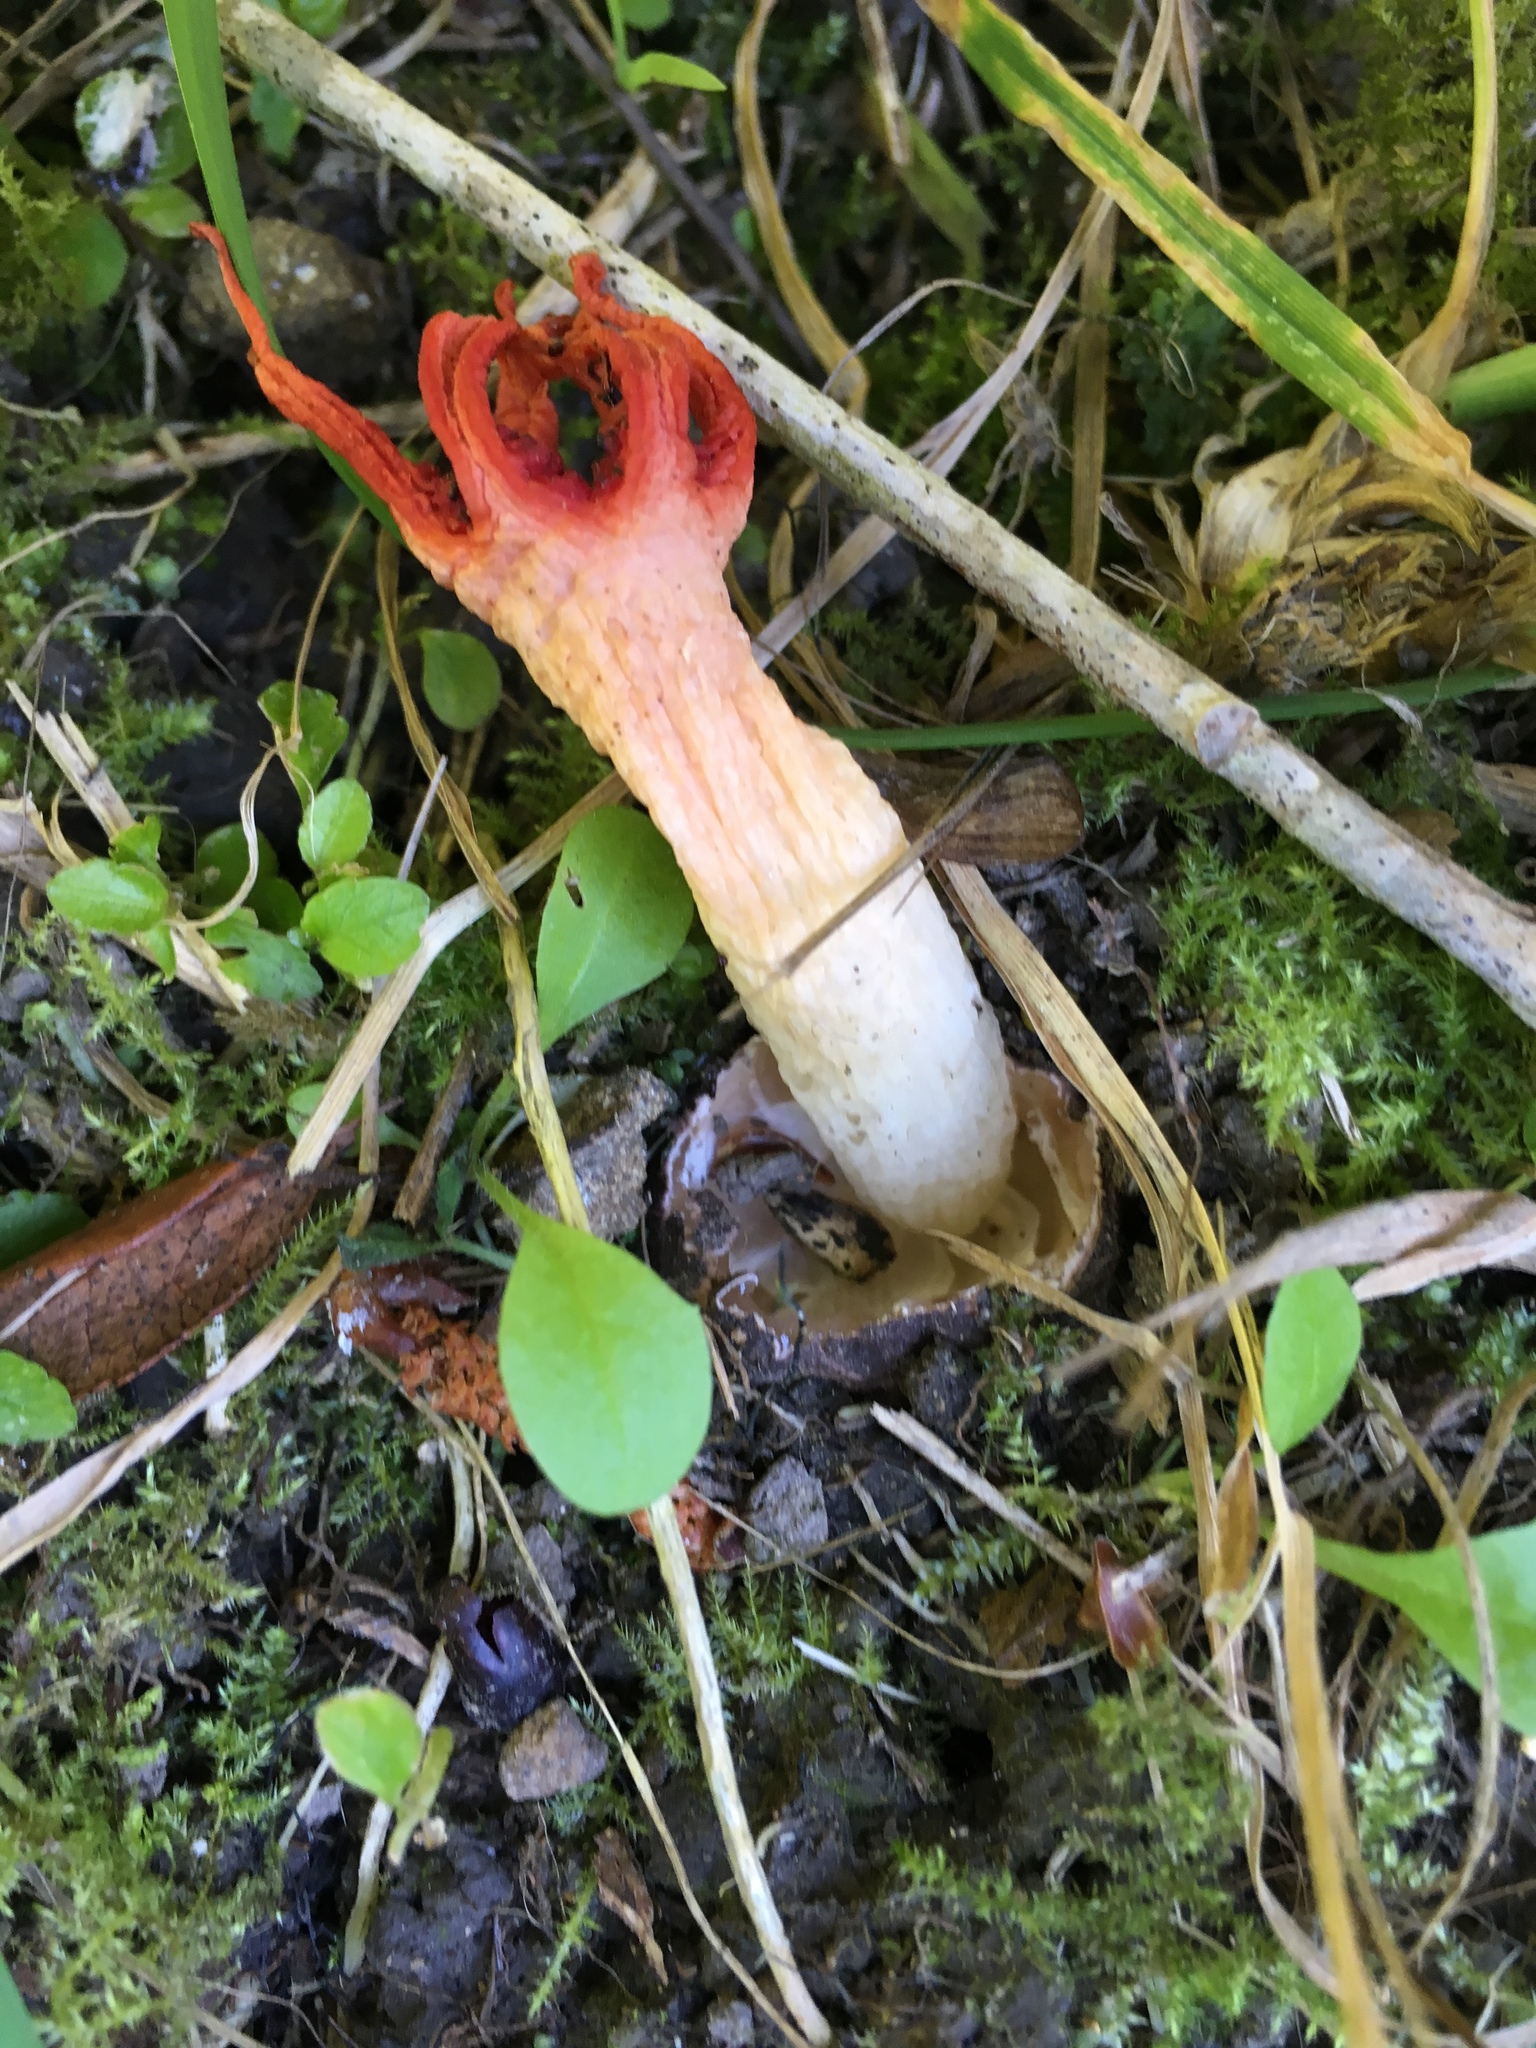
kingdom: Fungi
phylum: Basidiomycota
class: Agaricomycetes
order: Phallales
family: Phallaceae
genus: Aseroe
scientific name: Aseroe rubra
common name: Starfish fungus
